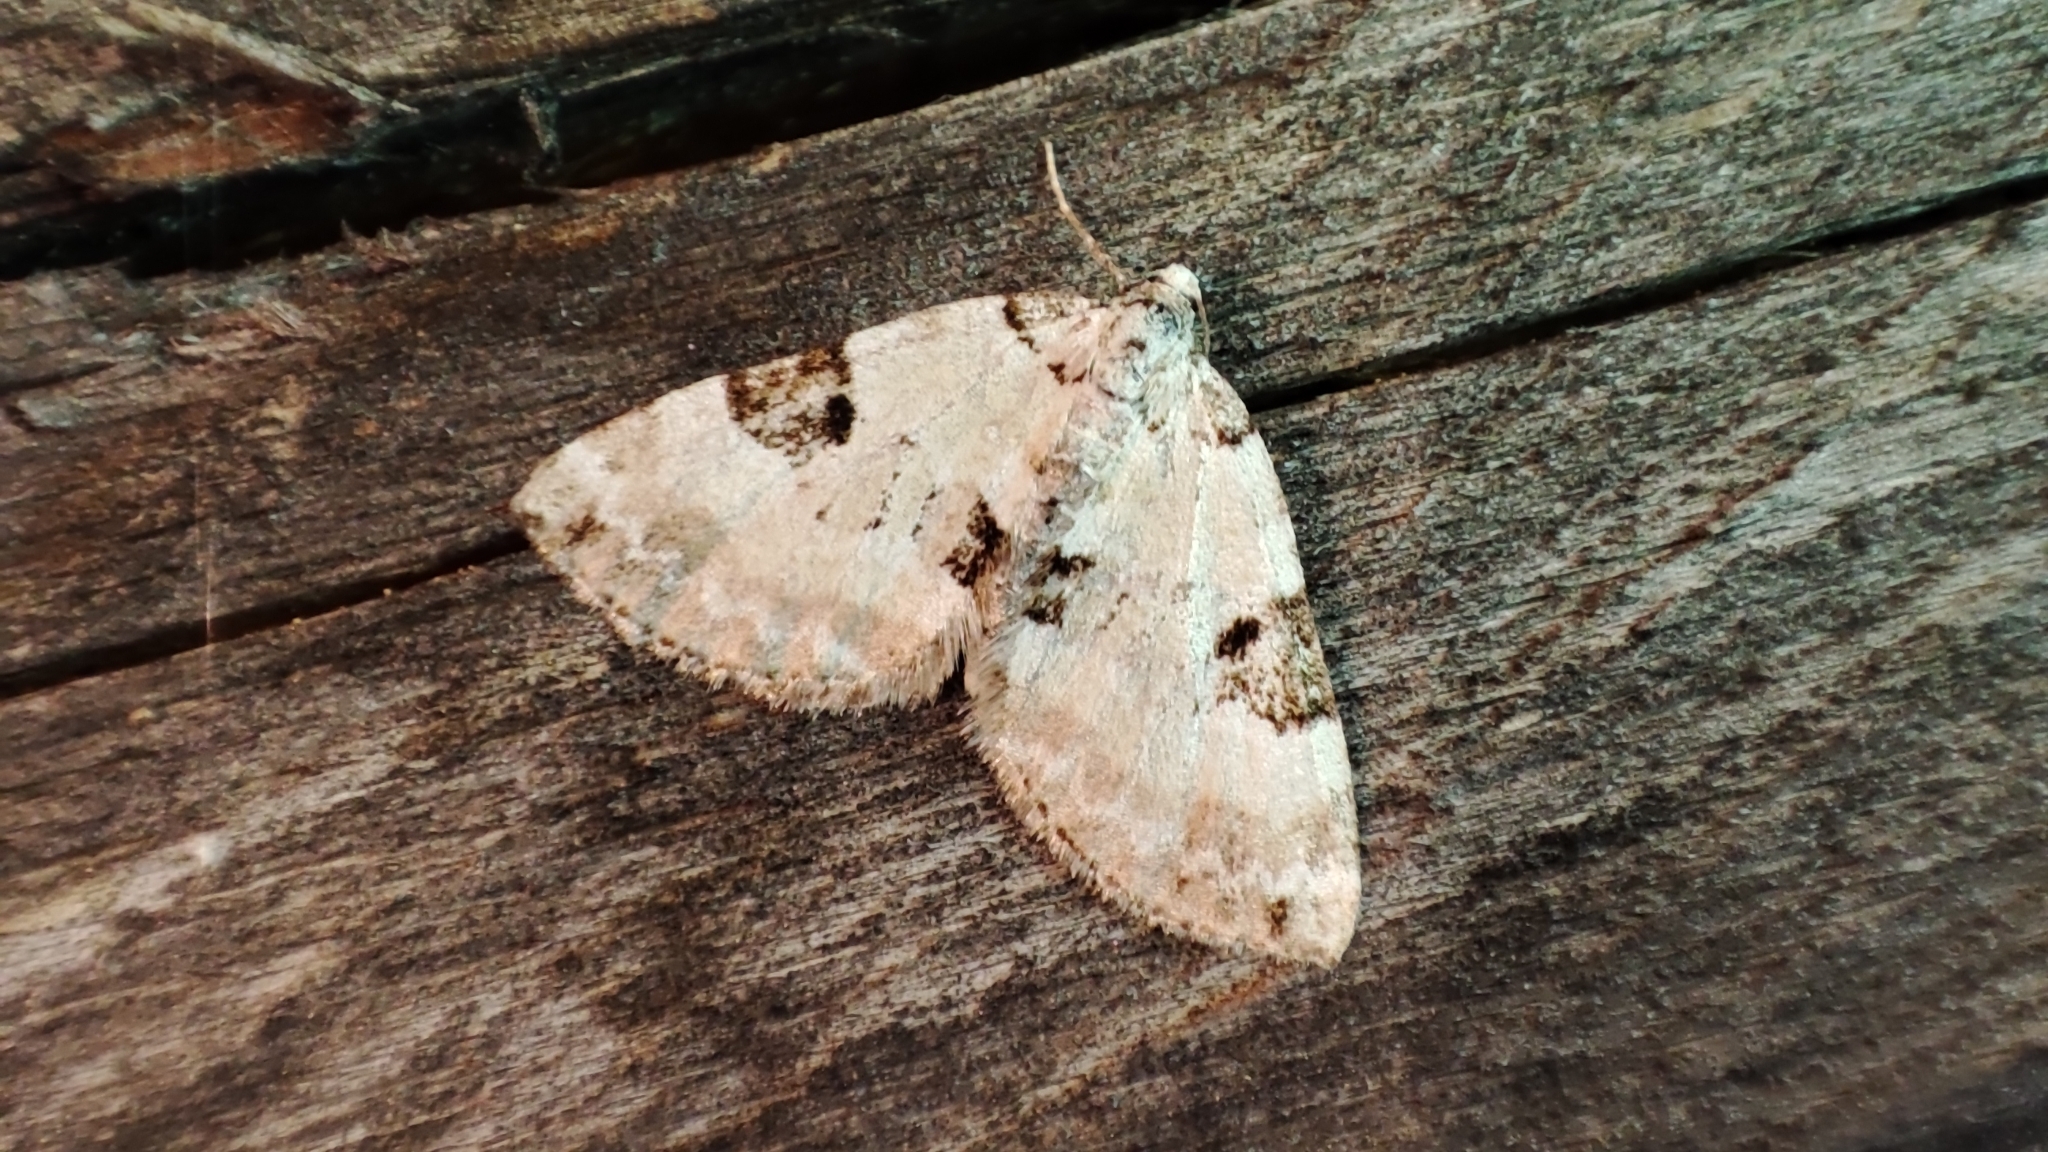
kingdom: Animalia
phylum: Arthropoda
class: Insecta
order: Lepidoptera
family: Geometridae
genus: Perizoma
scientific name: Perizoma blandiata
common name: Pretty pinion
